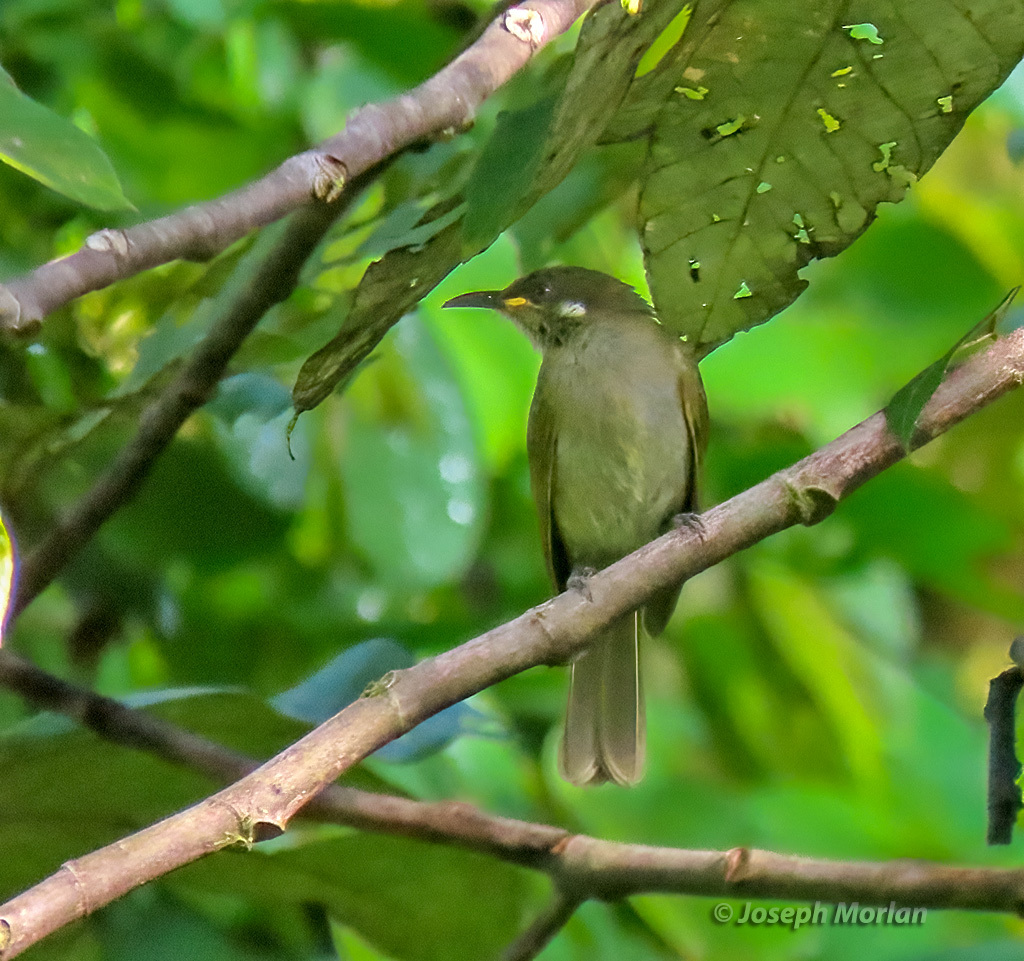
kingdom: Animalia
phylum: Chordata
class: Aves
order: Passeriformes
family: Meliphagidae
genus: Meliphaga
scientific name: Meliphaga aruensis
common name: Puff-backed honeyeater
